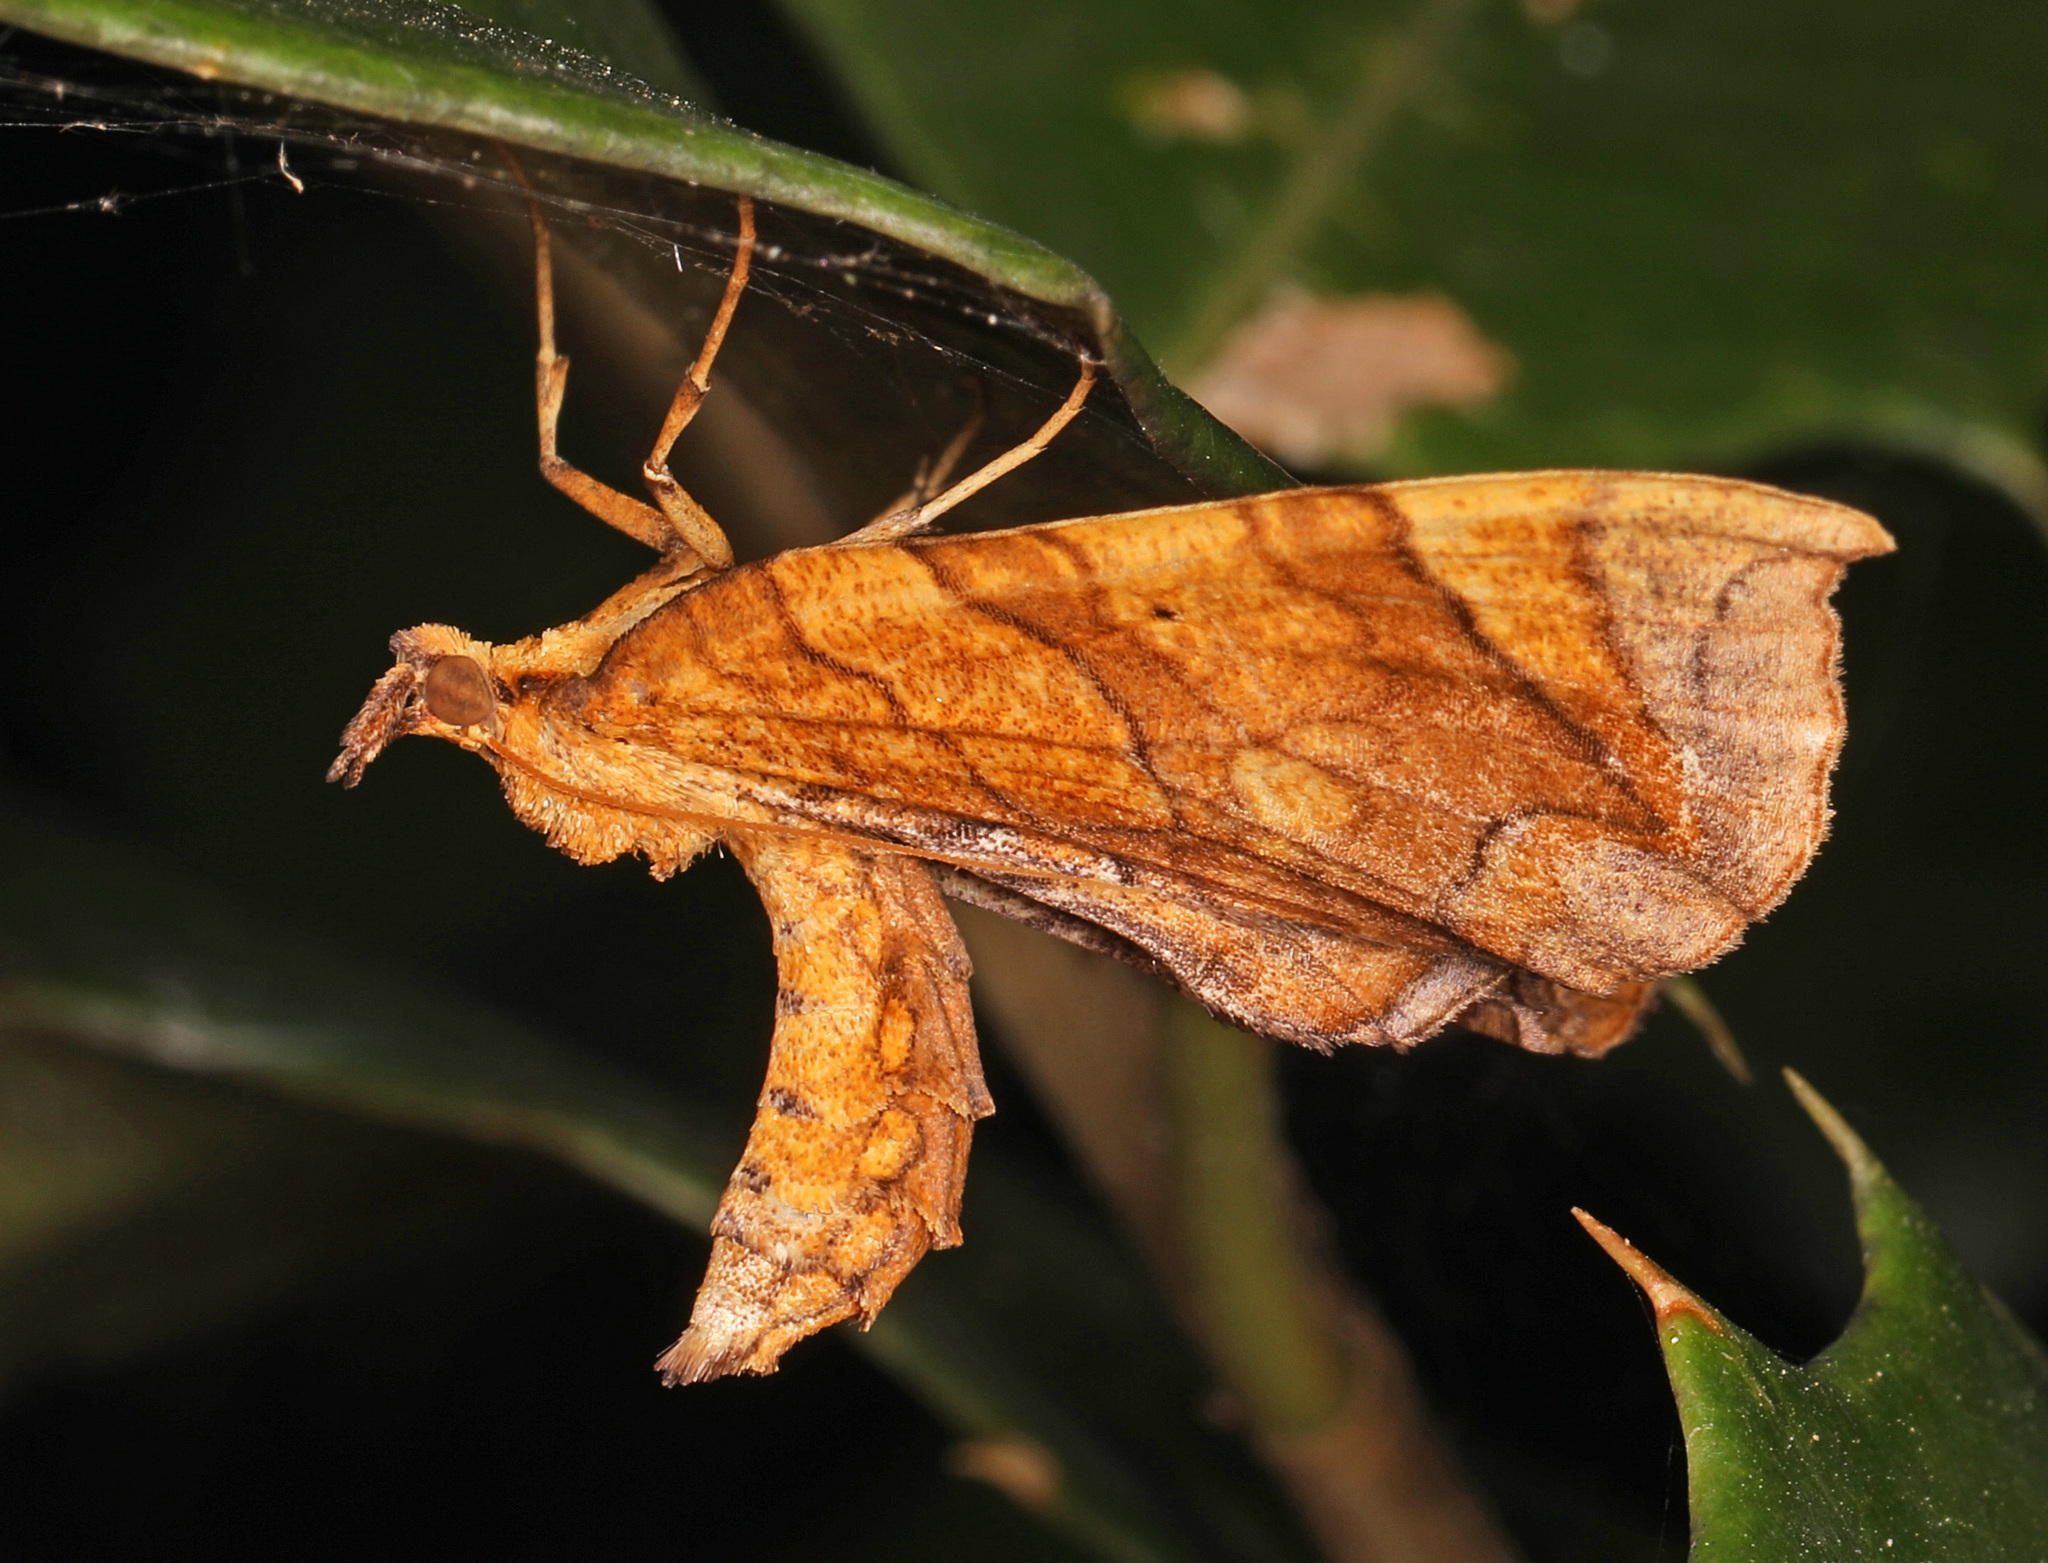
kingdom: Animalia
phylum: Arthropoda
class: Insecta
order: Lepidoptera
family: Geometridae
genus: Eulithis
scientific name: Eulithis gracilineata
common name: Greater grapevine looper moth
